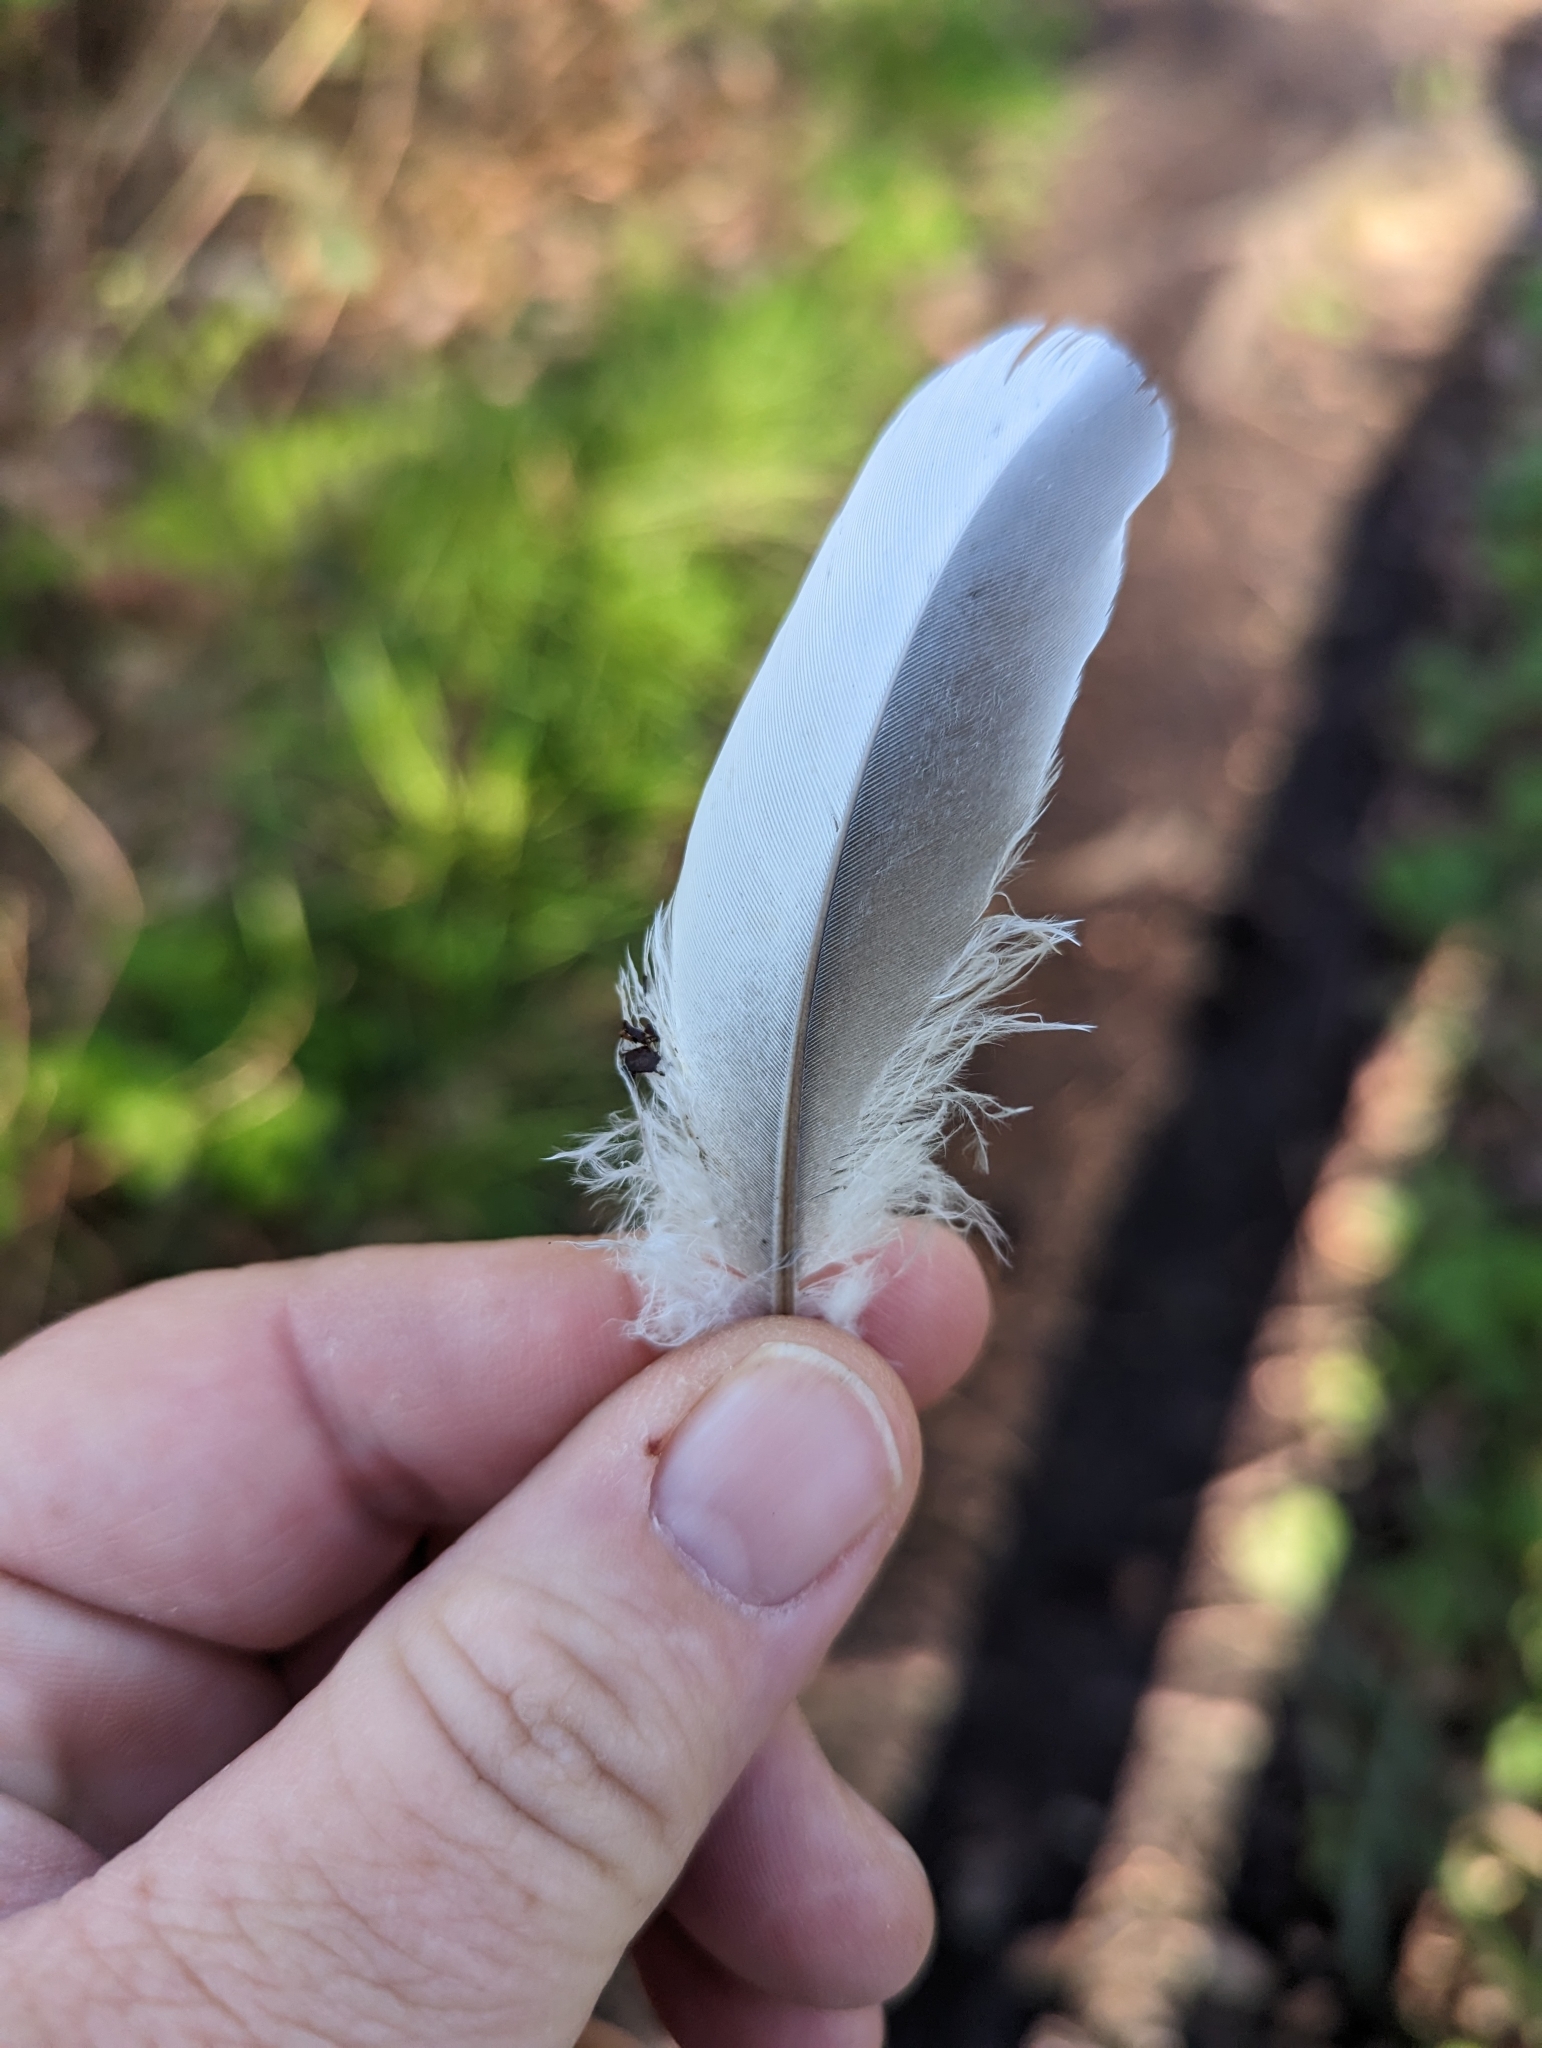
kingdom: Animalia
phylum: Chordata
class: Aves
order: Columbiformes
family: Columbidae
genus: Columba
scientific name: Columba palumbus
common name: Common wood pigeon
